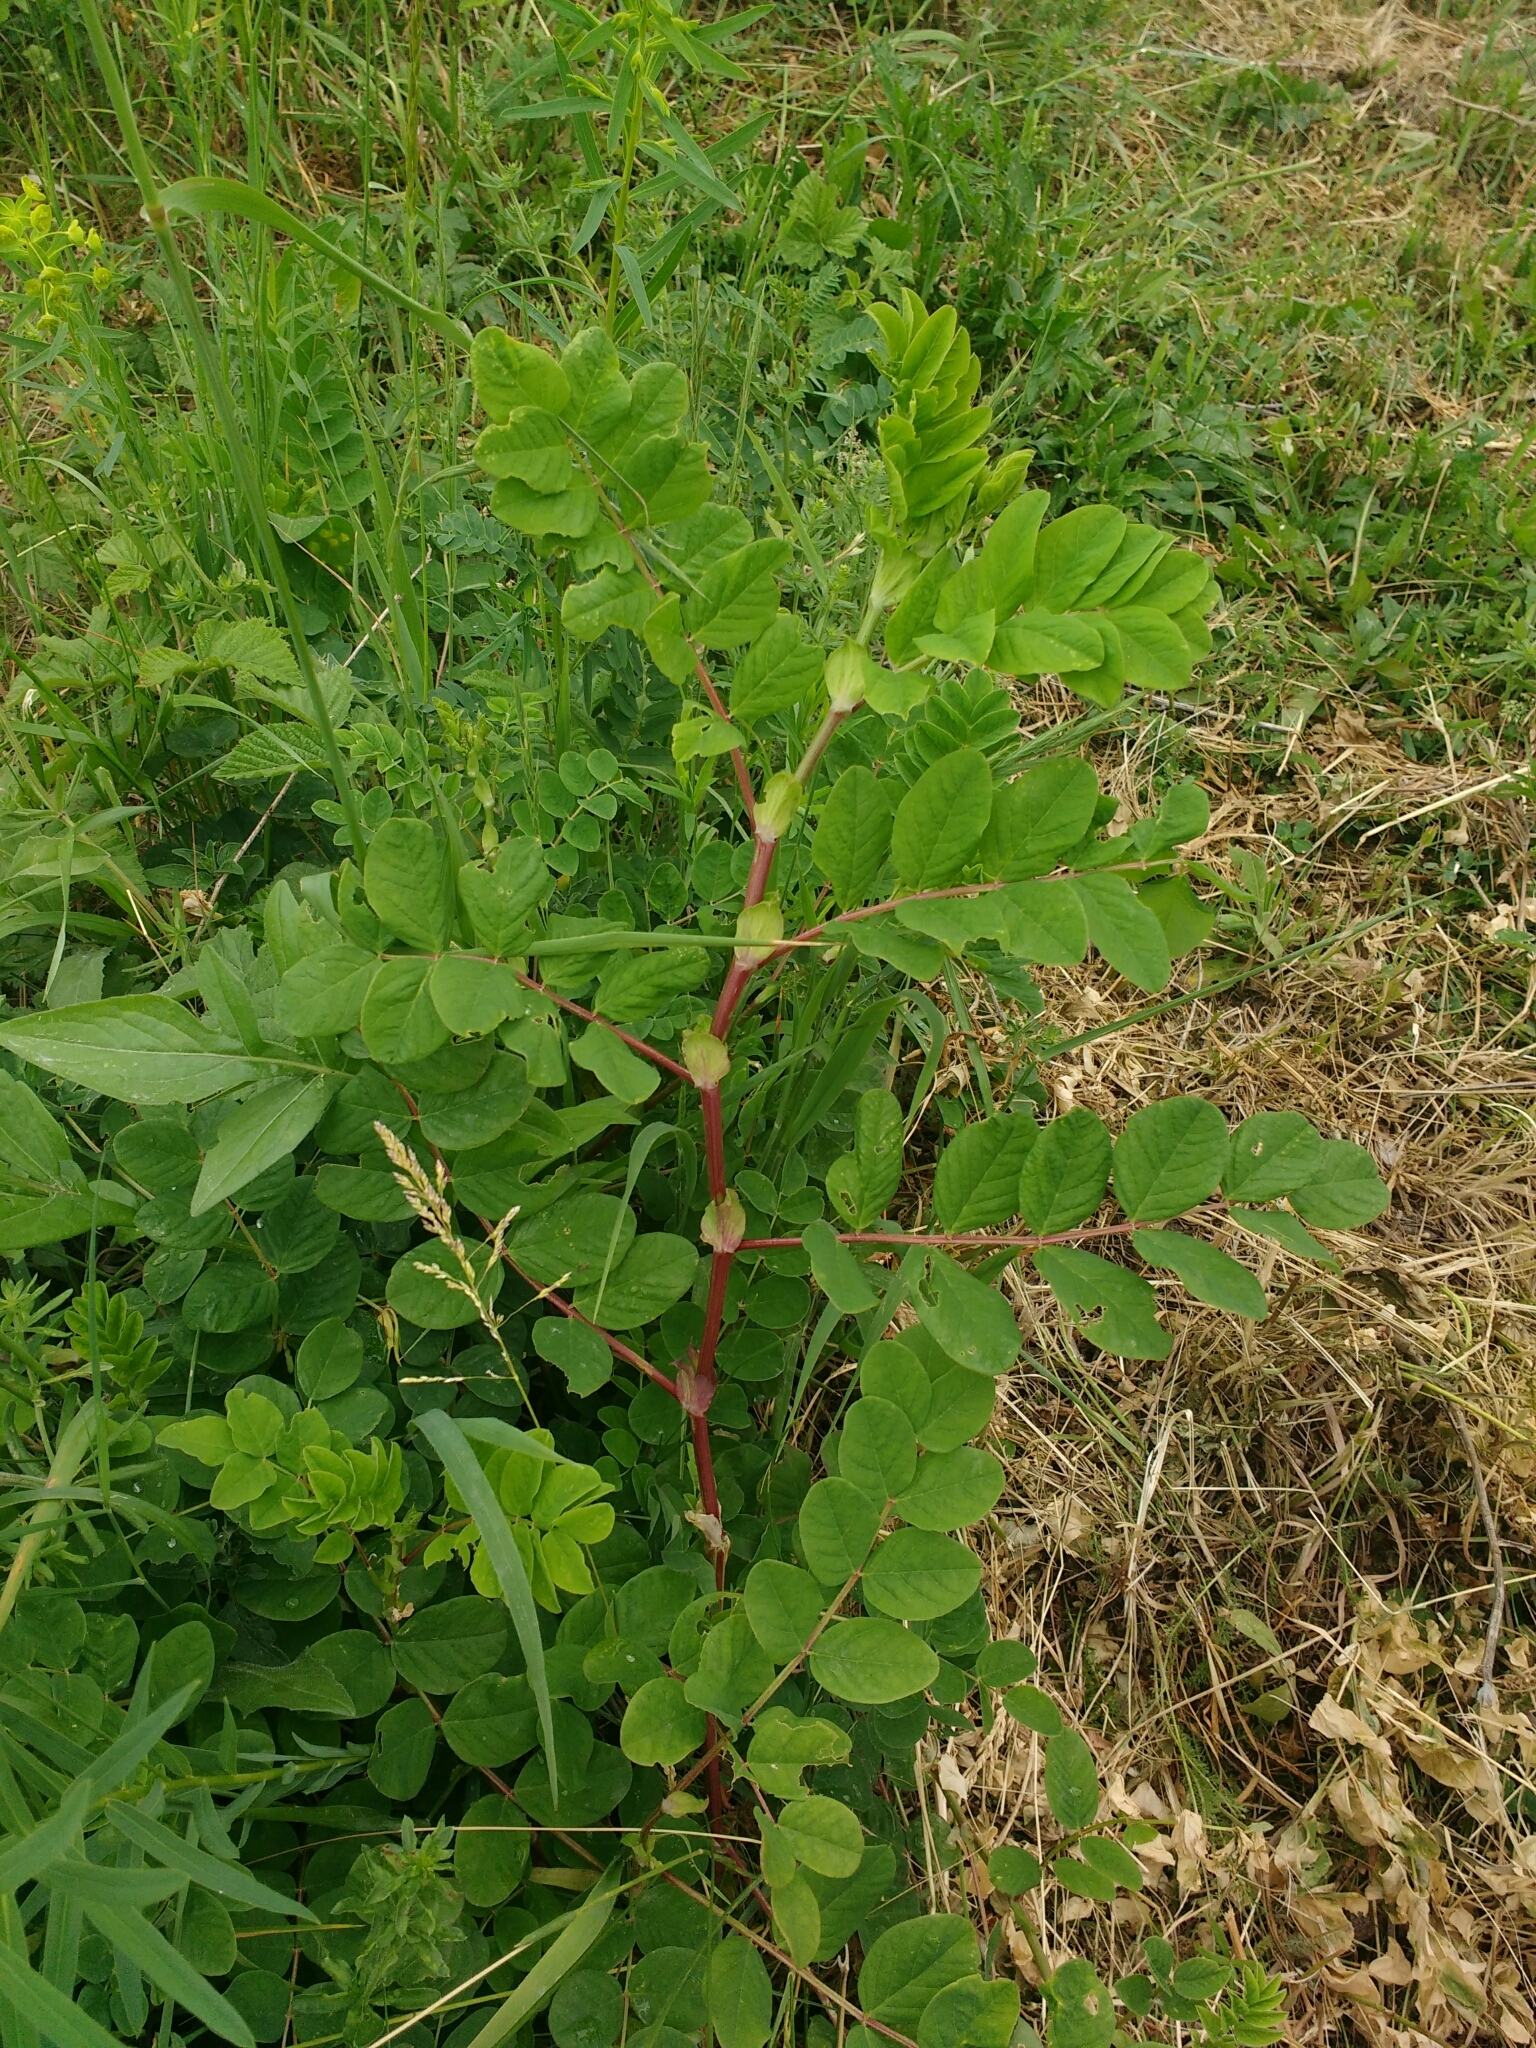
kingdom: Plantae
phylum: Tracheophyta
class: Magnoliopsida
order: Fabales
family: Fabaceae
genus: Astragalus
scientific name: Astragalus glycyphyllos
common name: Wild liquorice
